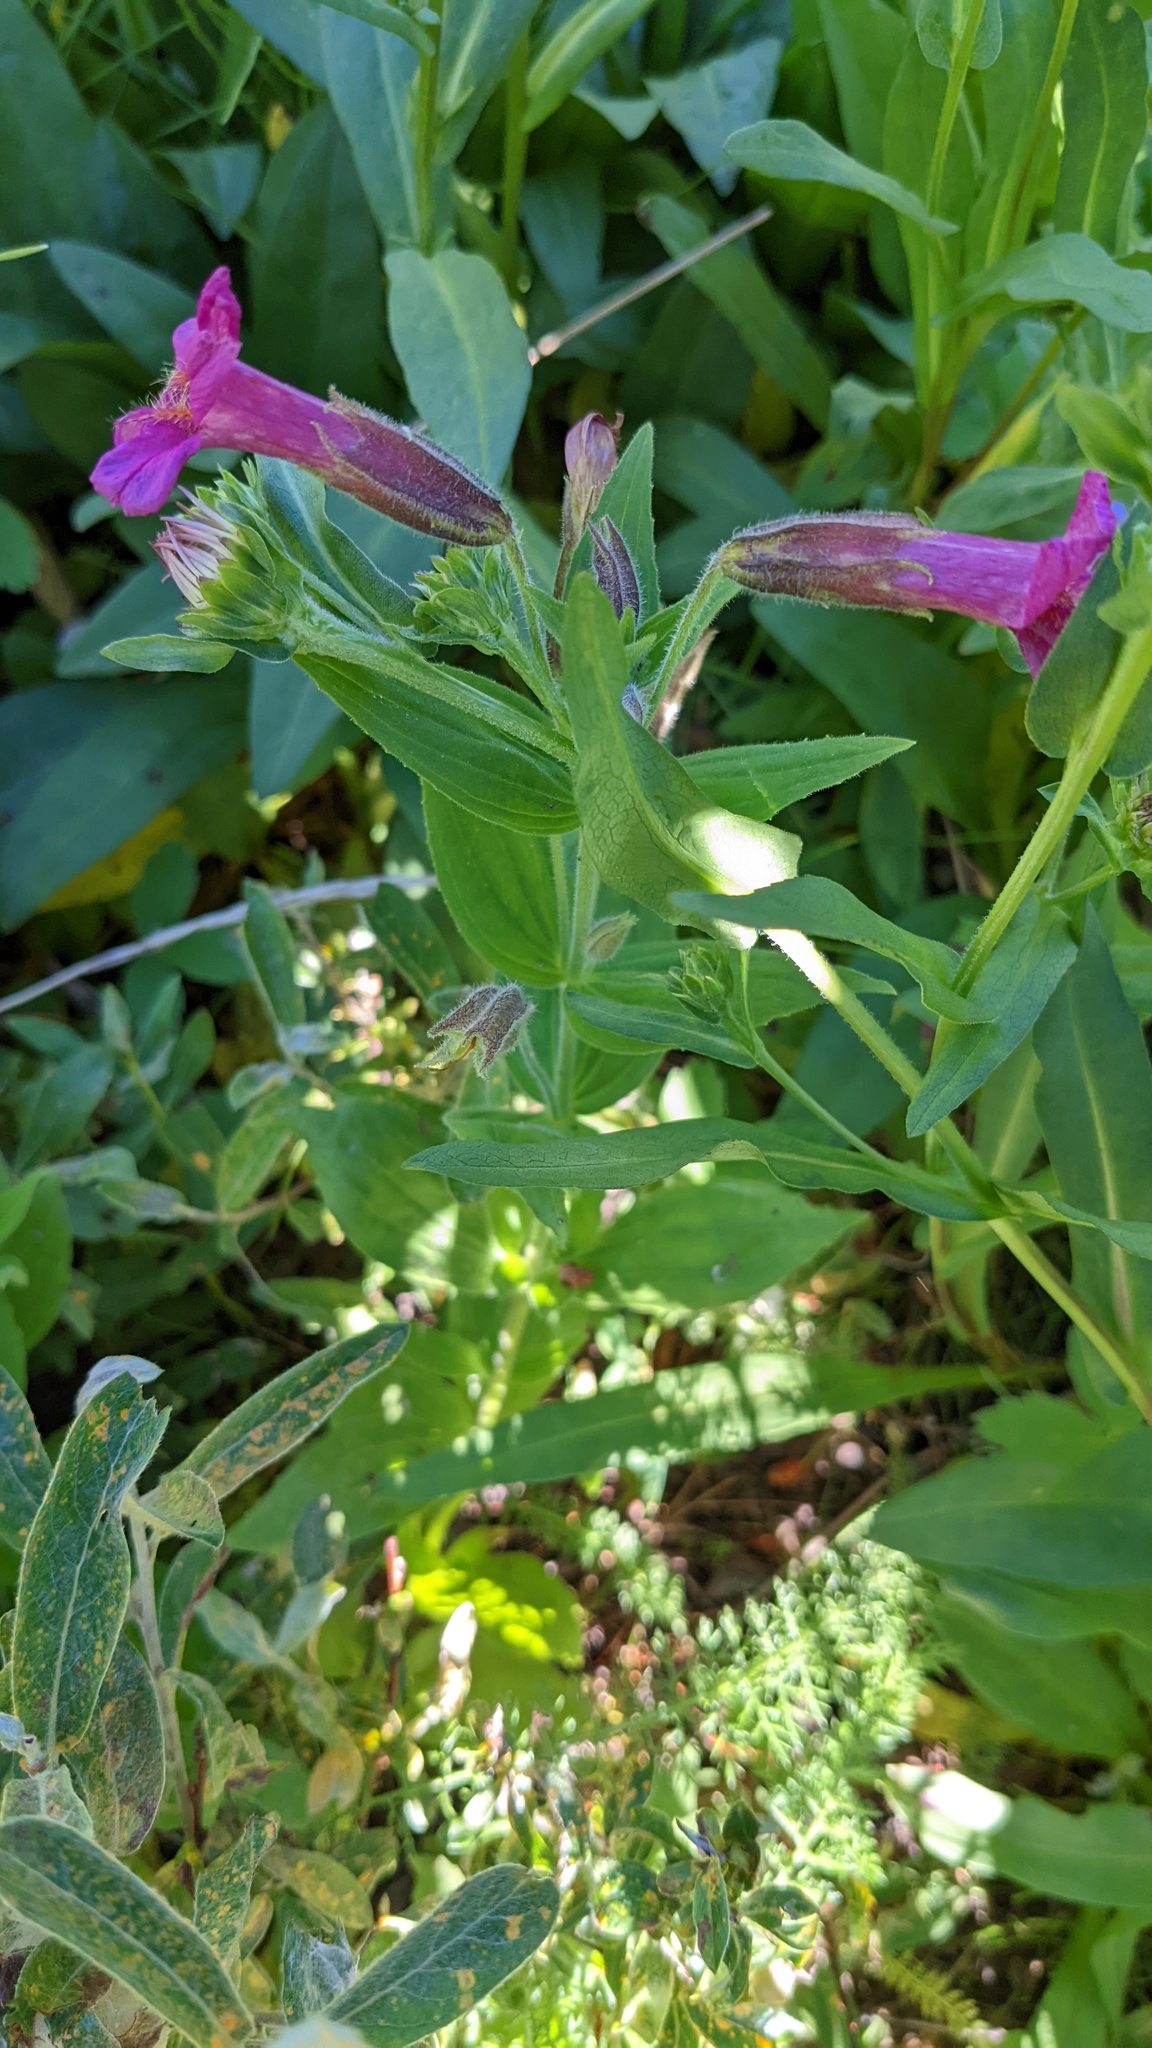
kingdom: Plantae
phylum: Tracheophyta
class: Magnoliopsida
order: Lamiales
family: Phrymaceae
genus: Erythranthe
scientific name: Erythranthe lewisii
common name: Lewis's monkey-flower
